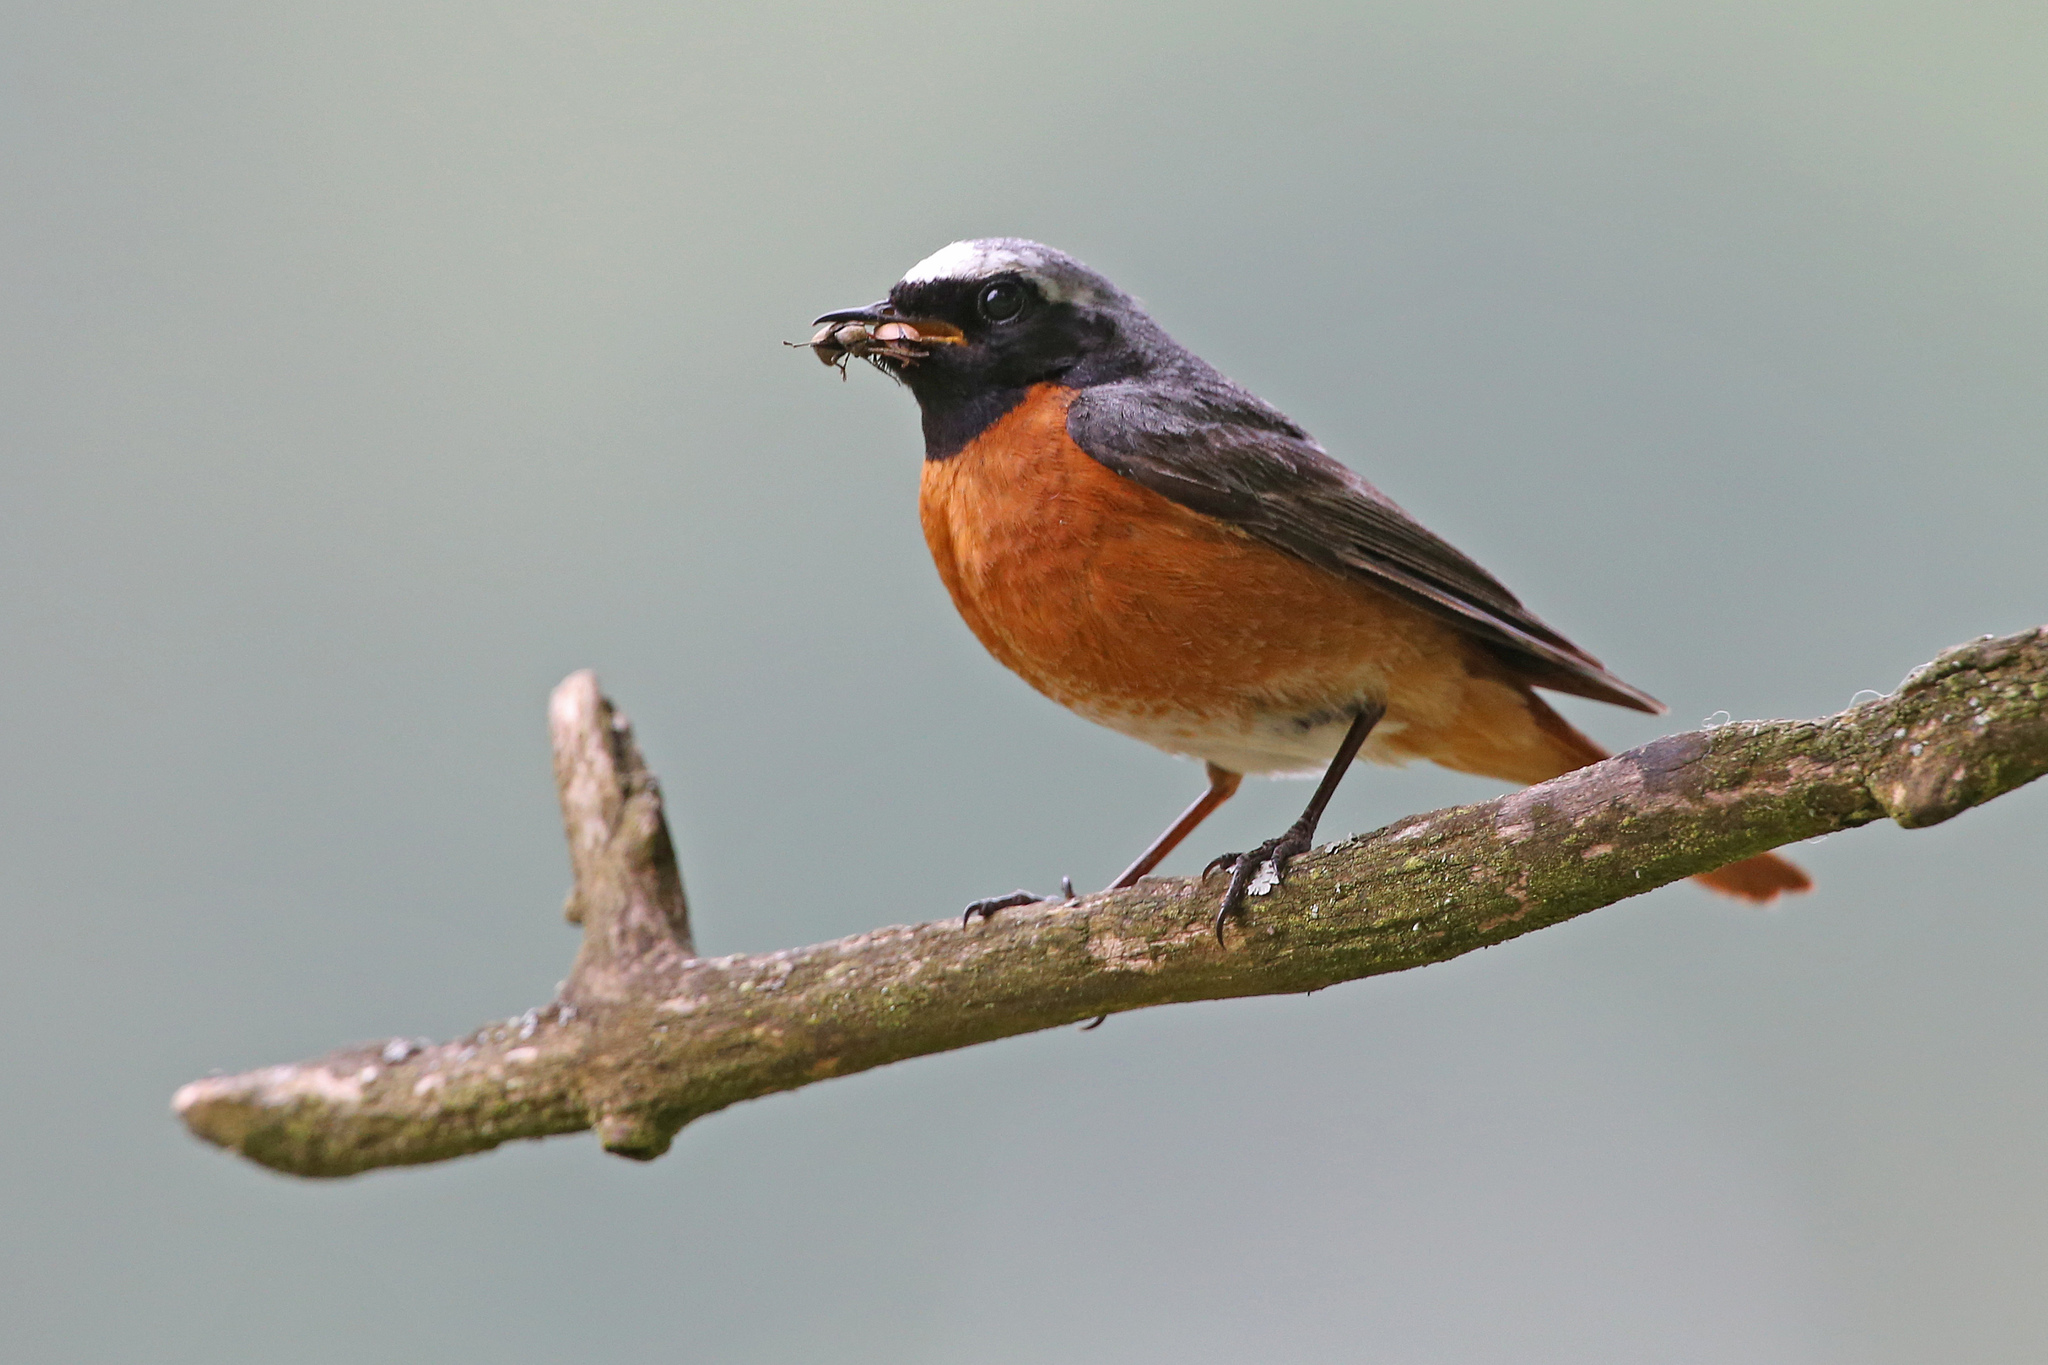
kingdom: Animalia
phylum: Chordata
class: Aves
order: Passeriformes
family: Muscicapidae
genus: Phoenicurus
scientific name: Phoenicurus phoenicurus
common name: Common redstart
